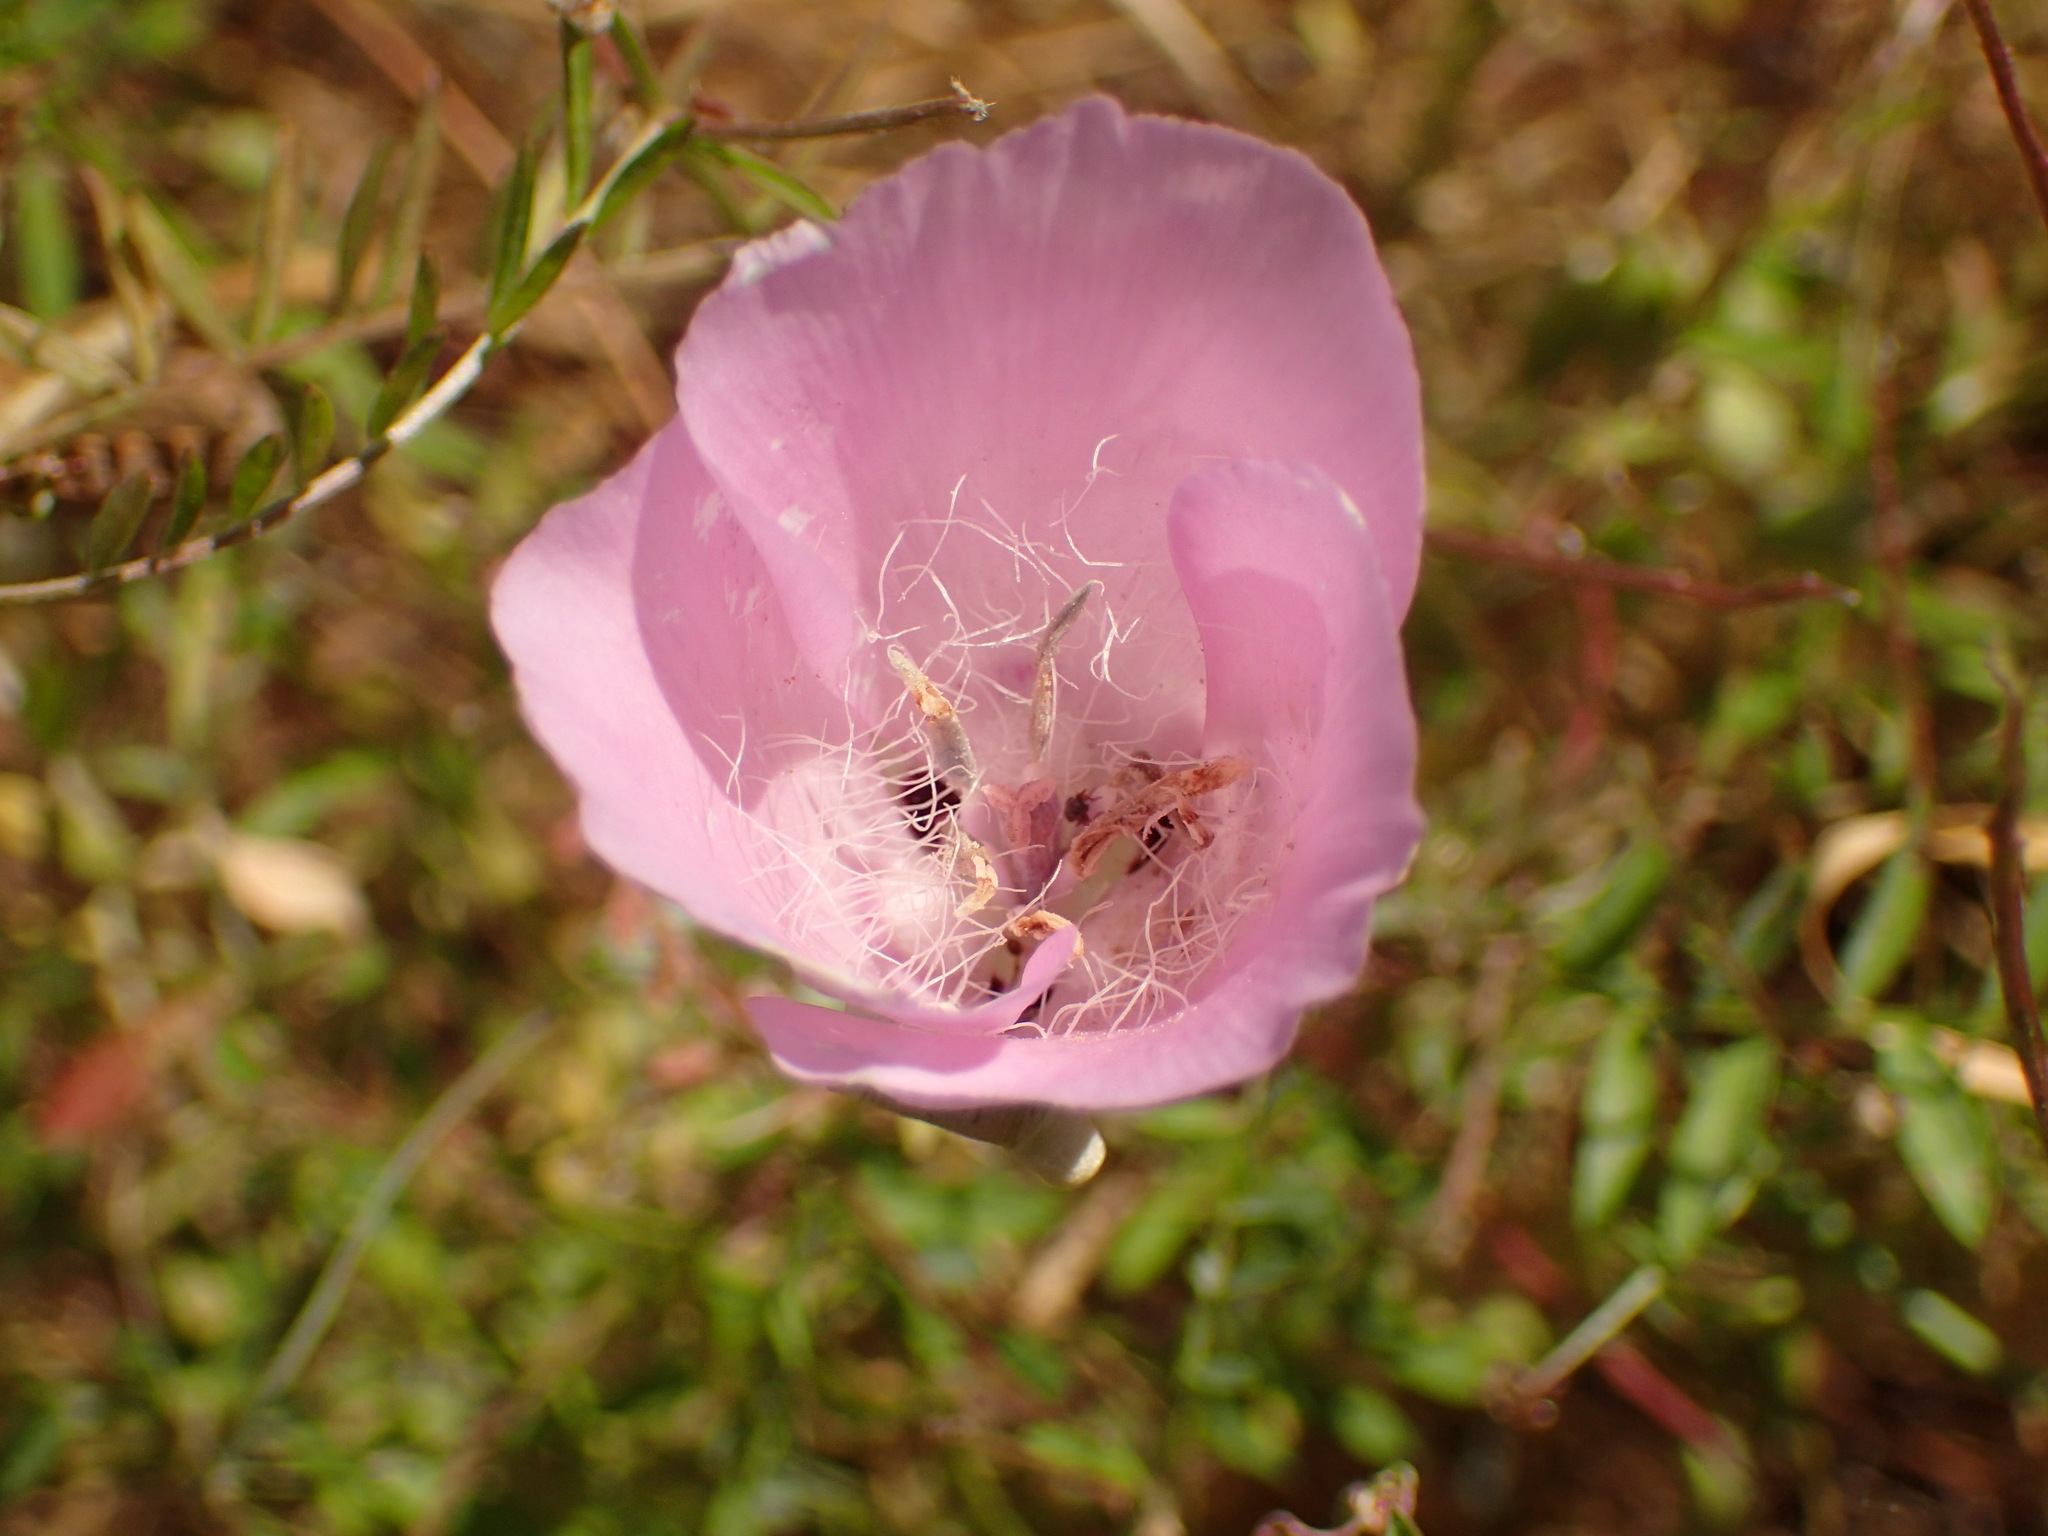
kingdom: Plantae
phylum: Tracheophyta
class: Liliopsida
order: Liliales
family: Liliaceae
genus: Calochortus
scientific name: Calochortus splendens
